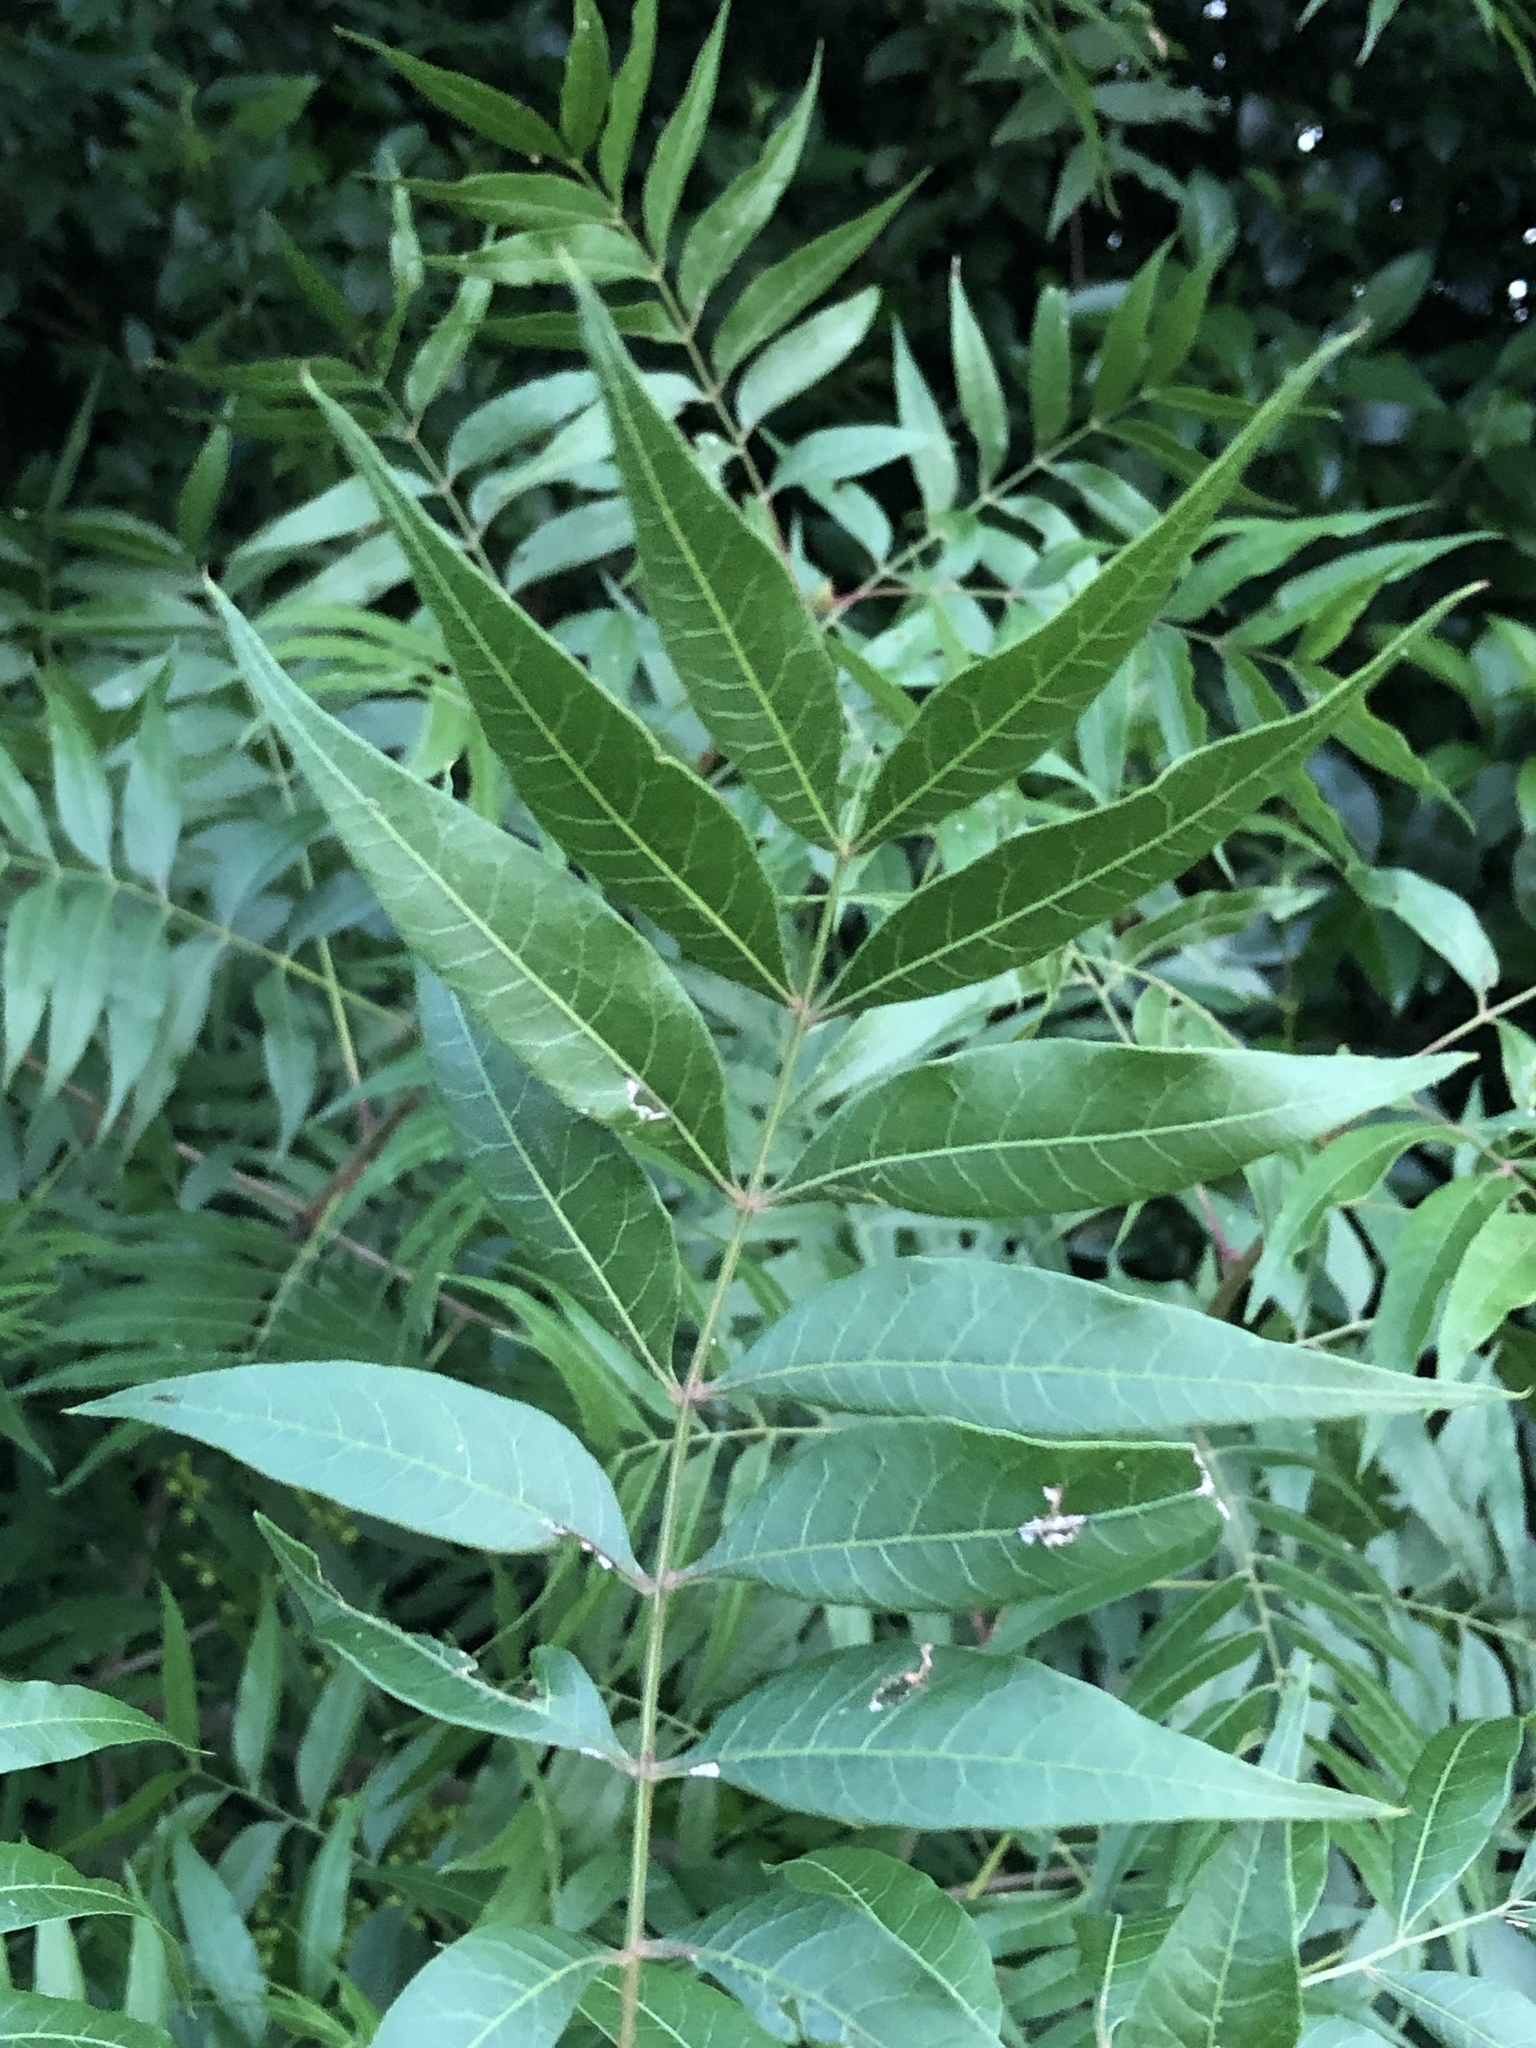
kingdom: Plantae
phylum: Tracheophyta
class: Magnoliopsida
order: Sapindales
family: Anacardiaceae
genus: Pistacia
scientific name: Pistacia chinensis
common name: Chinese pistache
